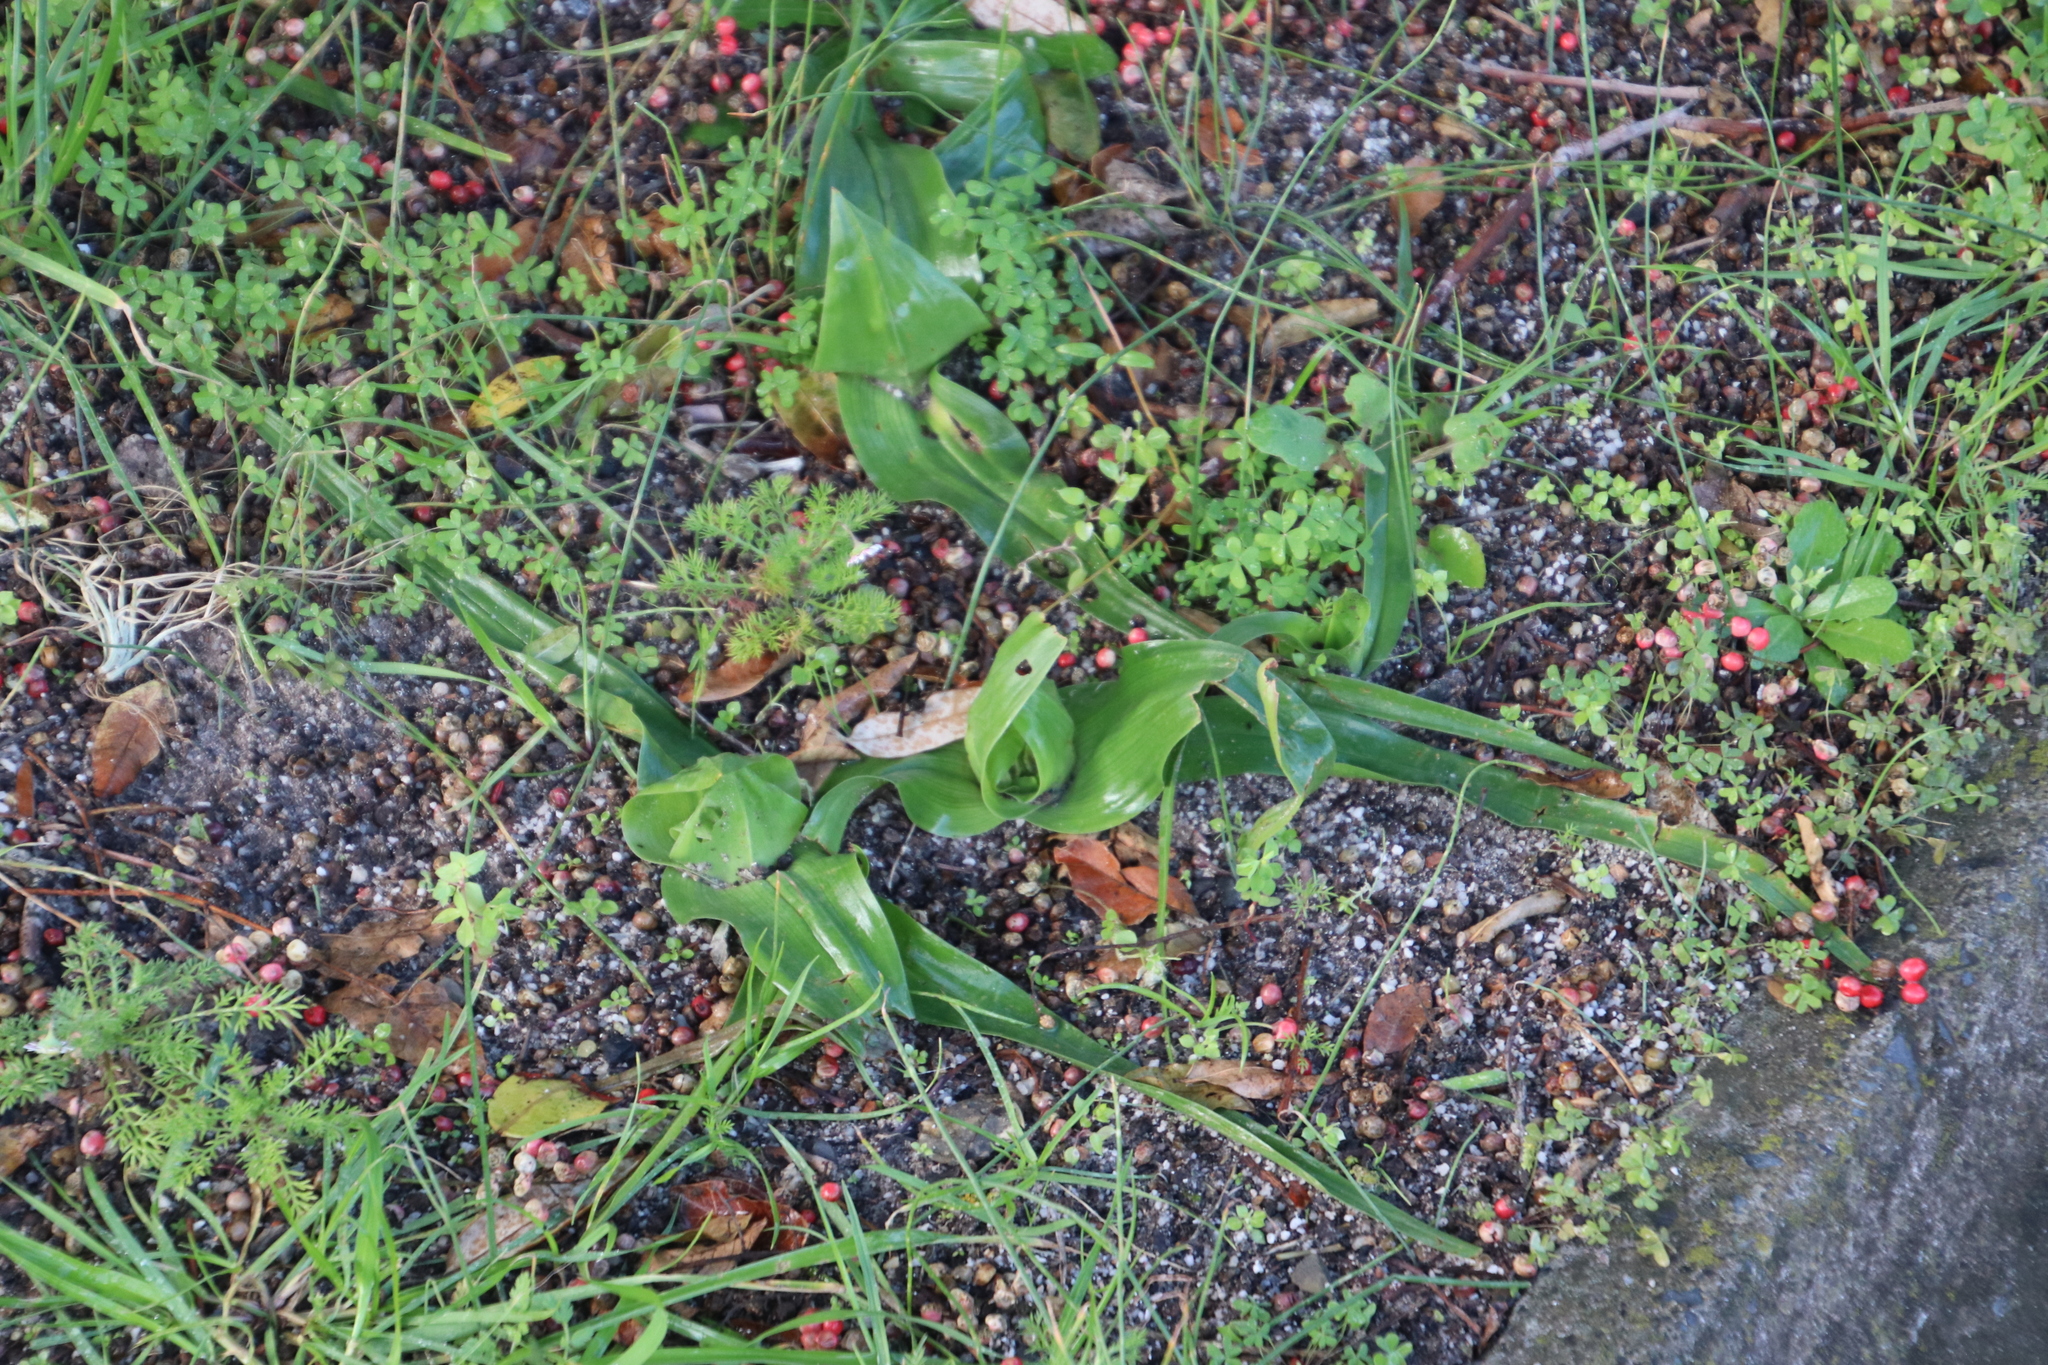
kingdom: Plantae
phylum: Tracheophyta
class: Liliopsida
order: Liliales
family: Colchicaceae
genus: Colchicum
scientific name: Colchicum eucomoides
